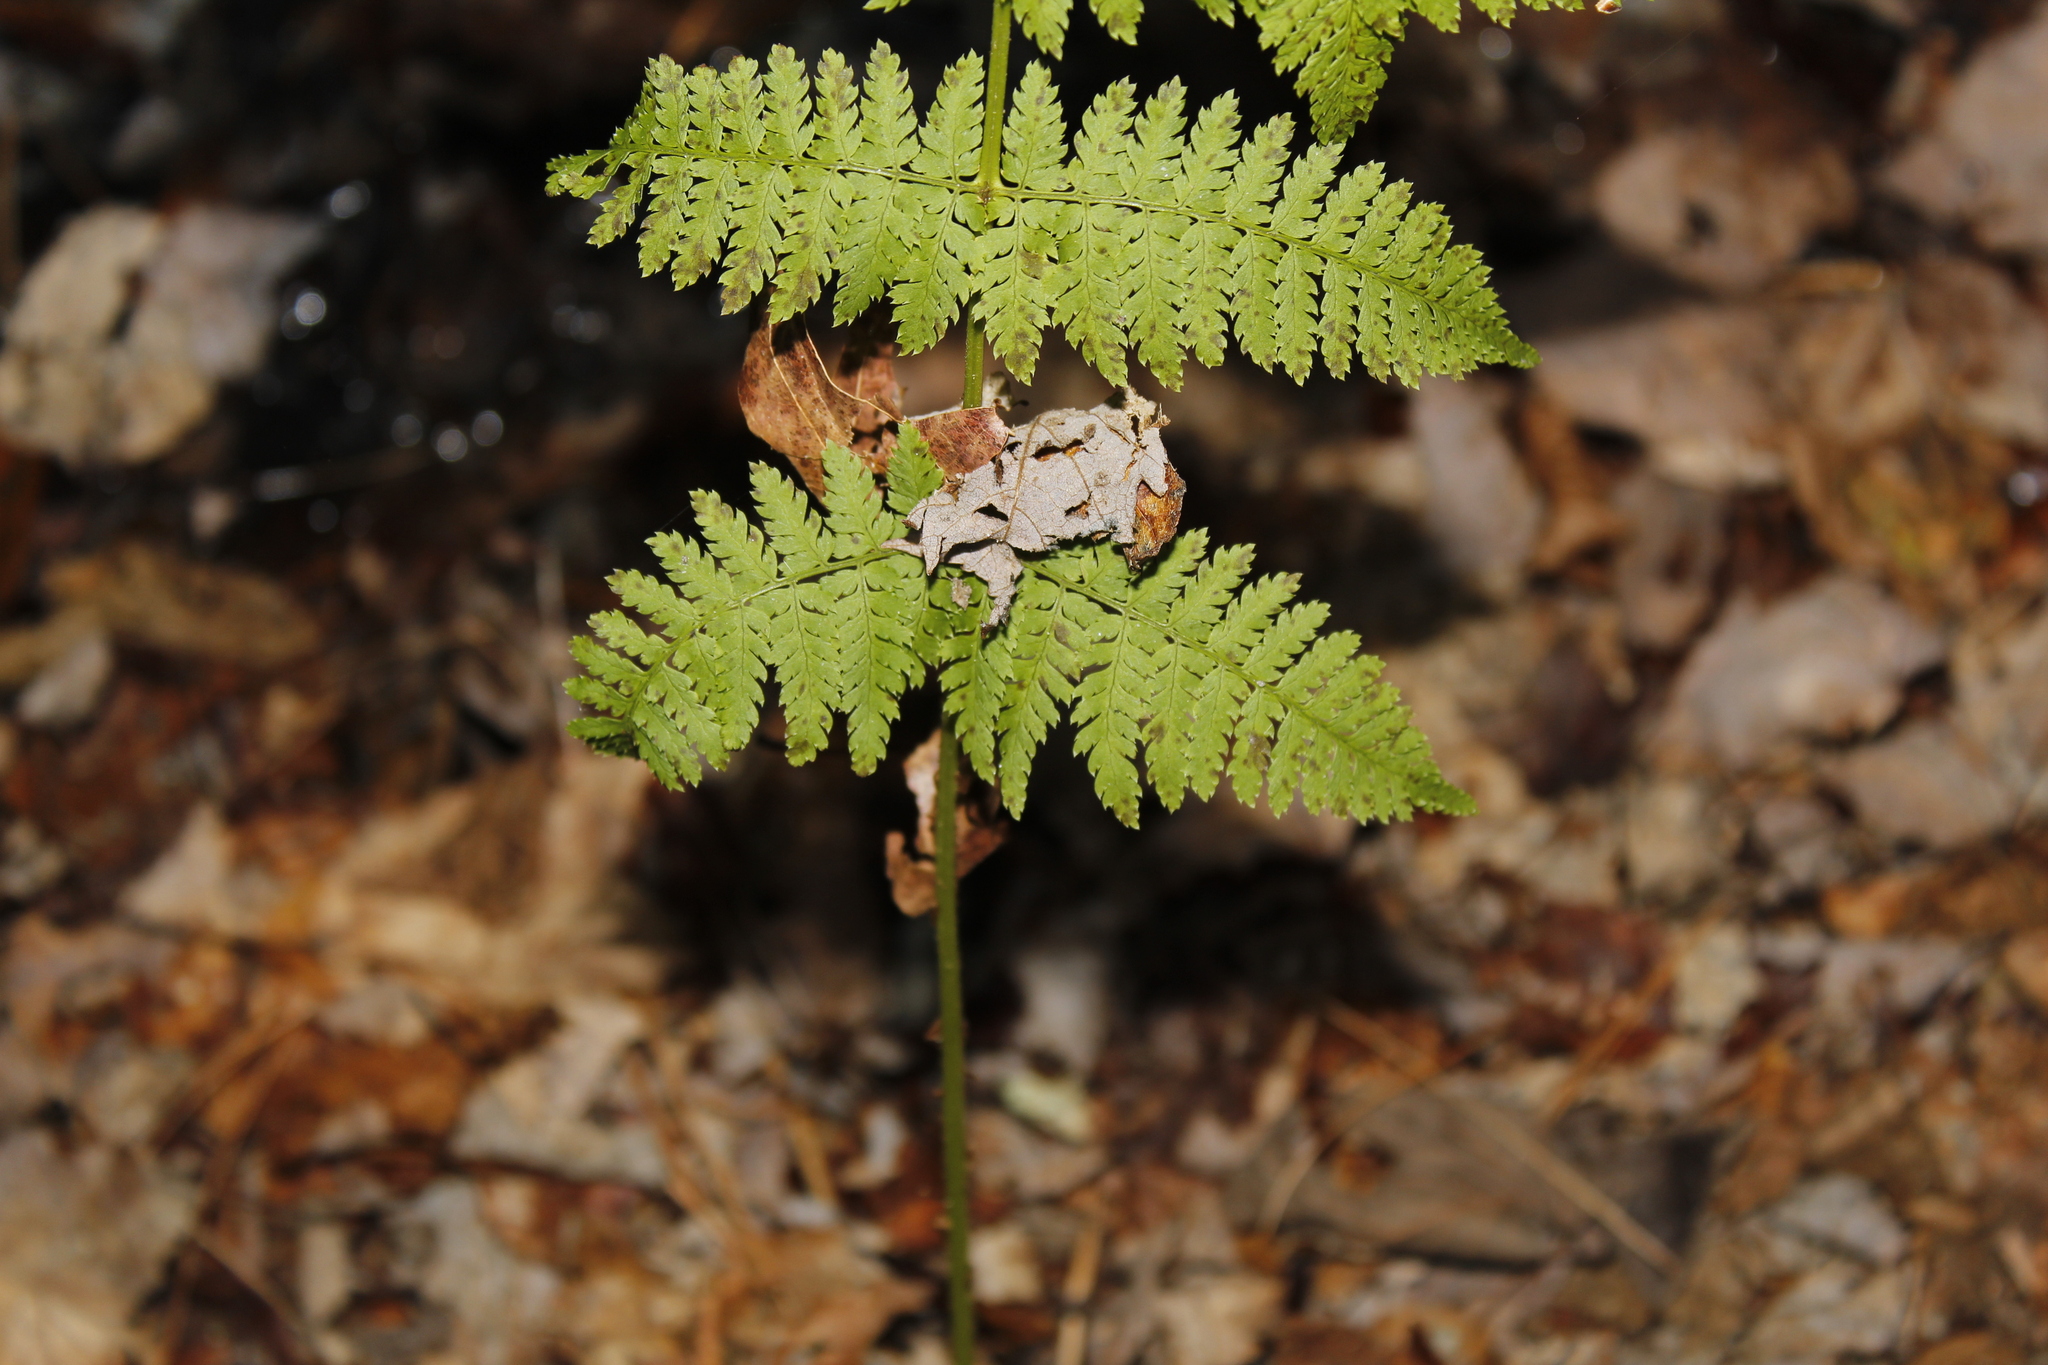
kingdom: Plantae
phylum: Tracheophyta
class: Polypodiopsida
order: Polypodiales
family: Dryopteridaceae
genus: Dryopteris
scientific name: Dryopteris intermedia
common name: Evergreen wood fern
